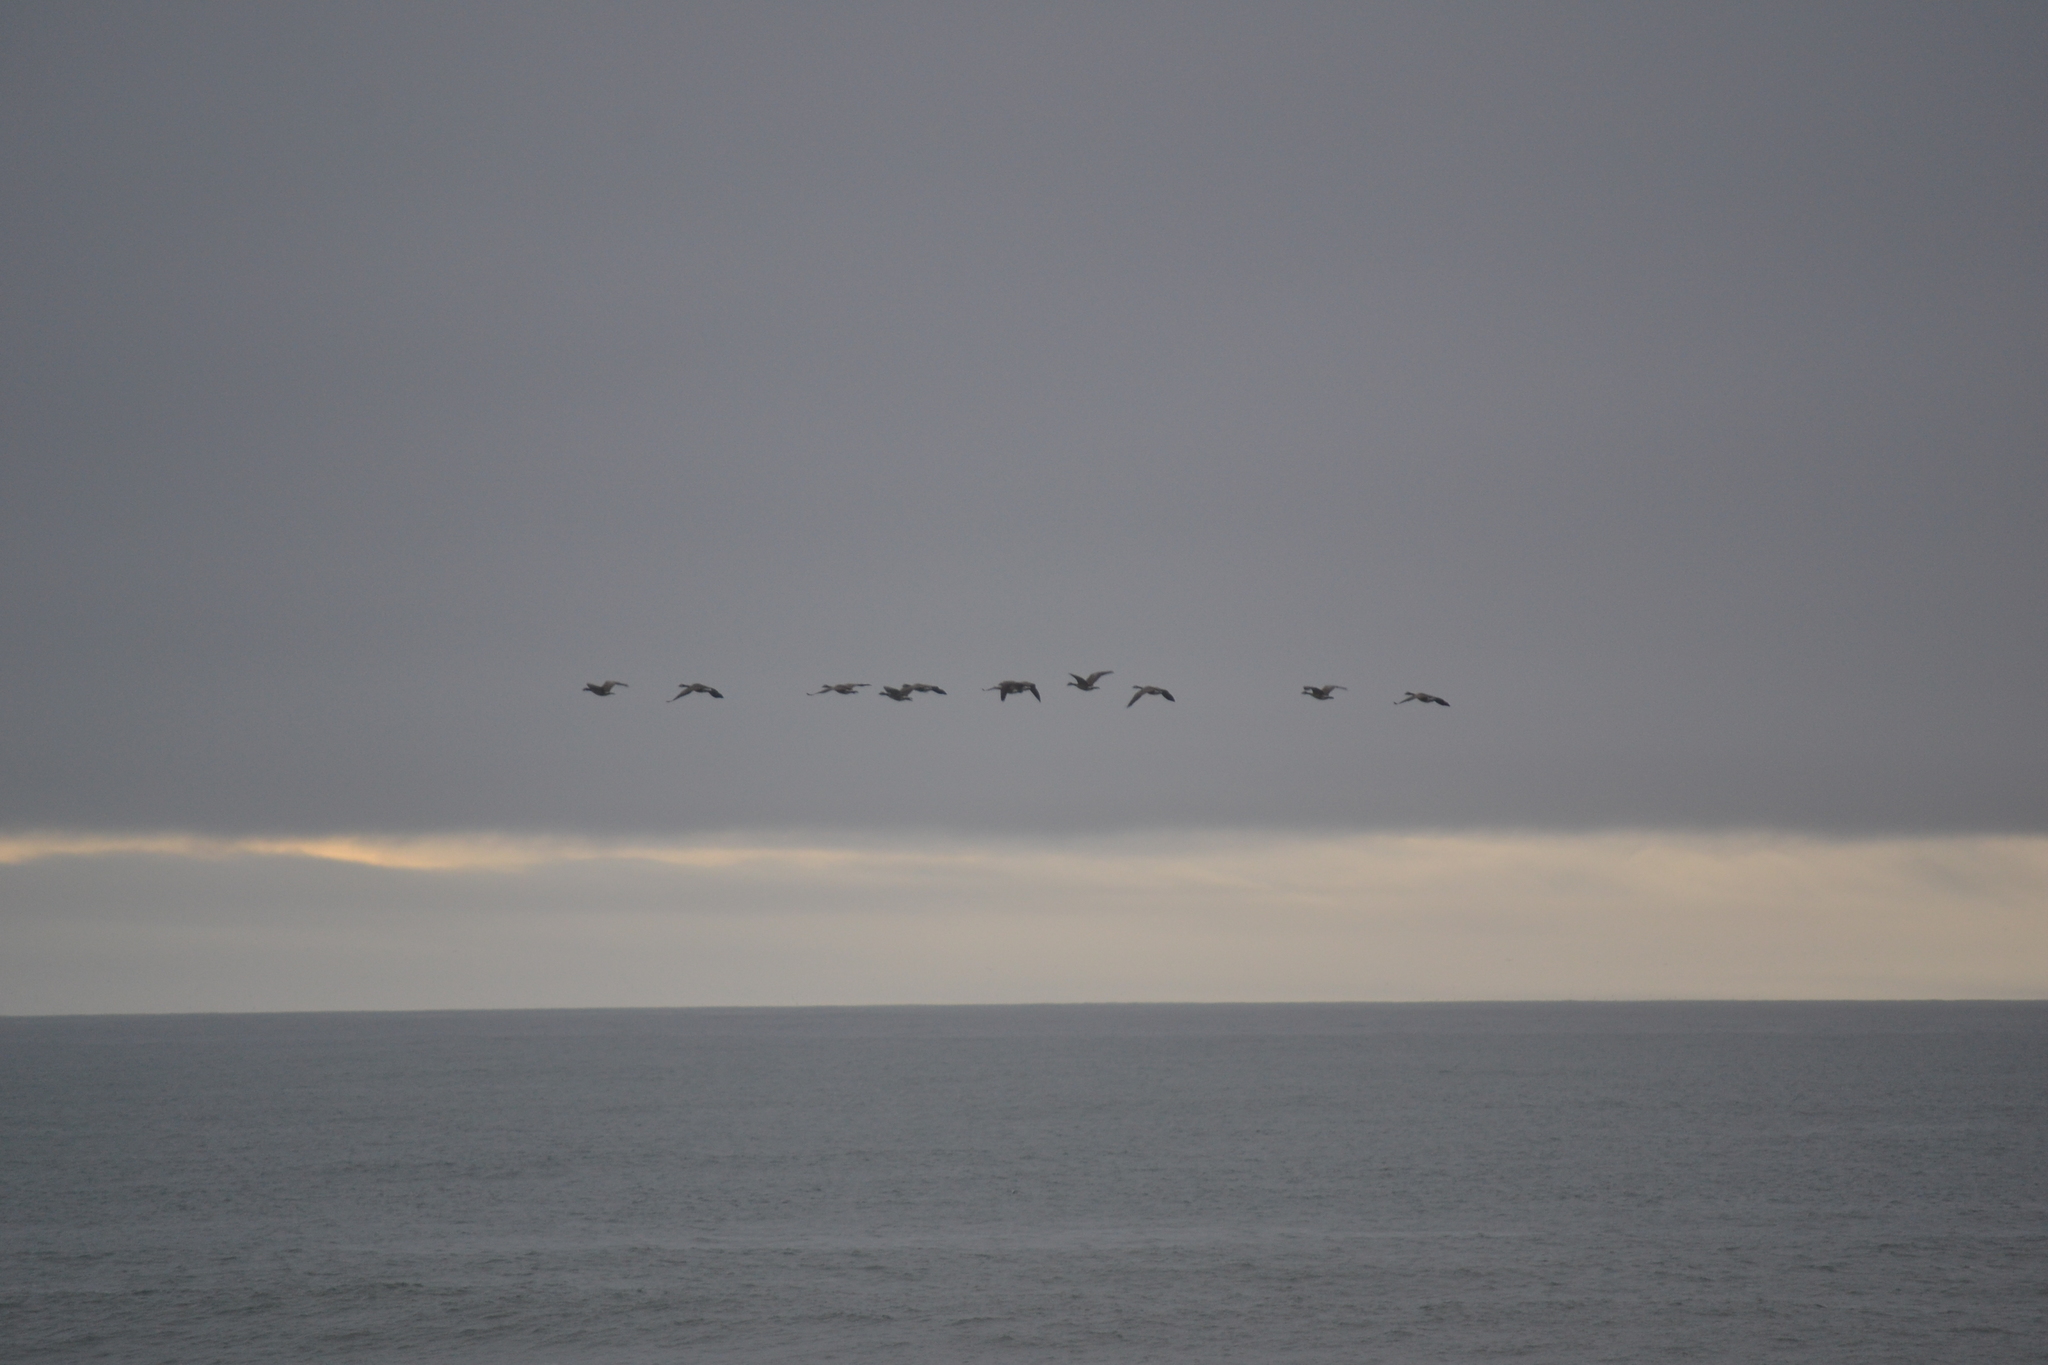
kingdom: Animalia
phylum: Chordata
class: Aves
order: Anseriformes
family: Anatidae
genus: Anser
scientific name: Anser albifrons
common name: Greater white-fronted goose
